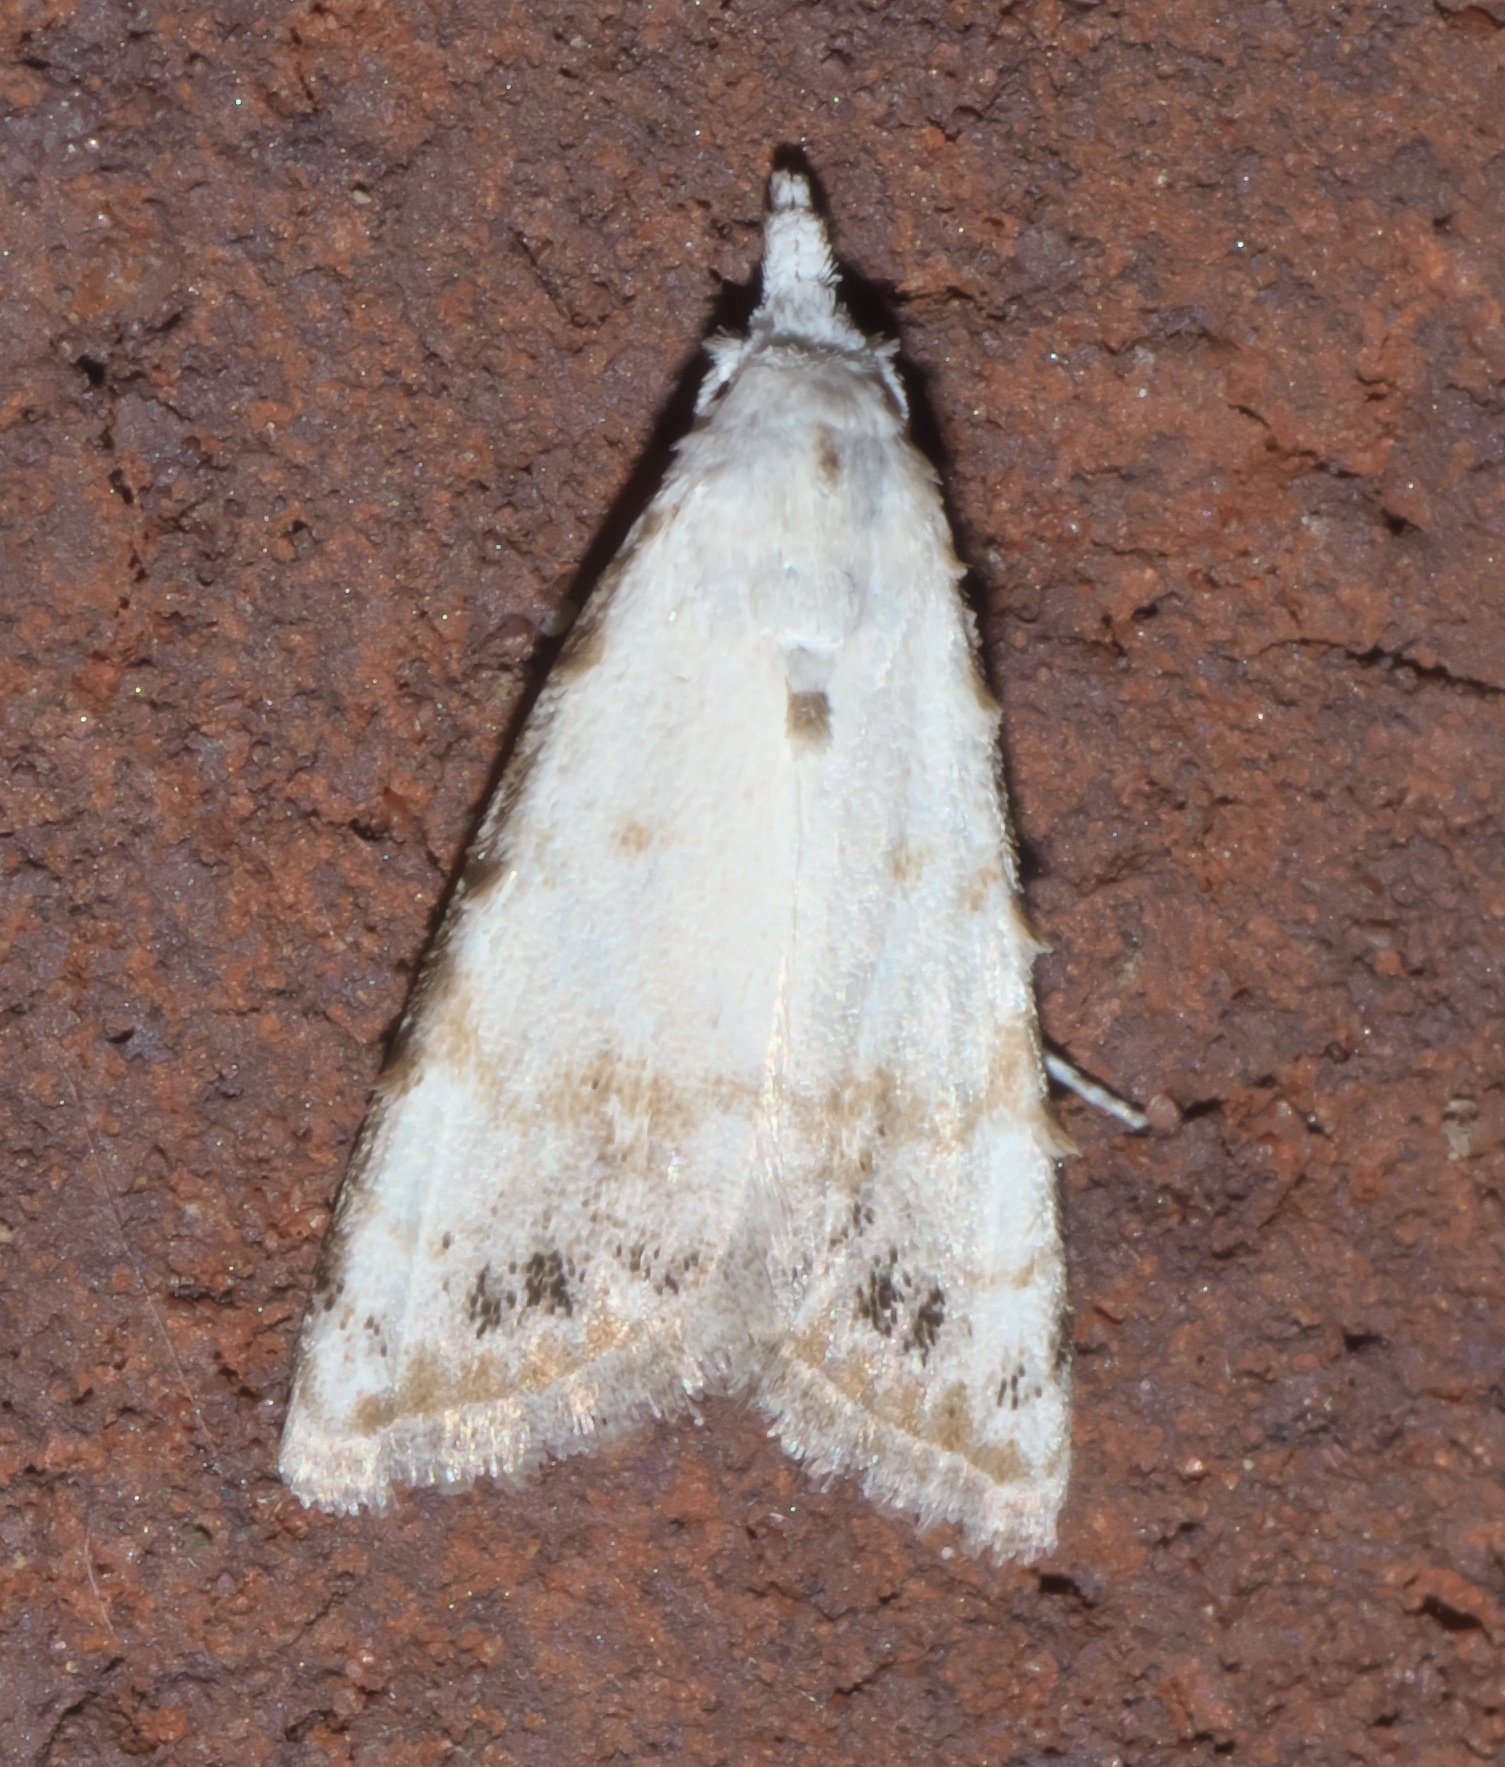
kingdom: Animalia
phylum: Arthropoda
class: Insecta
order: Lepidoptera
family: Nolidae
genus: Nola
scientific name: Nola cereella
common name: Sorghum webworm moth
